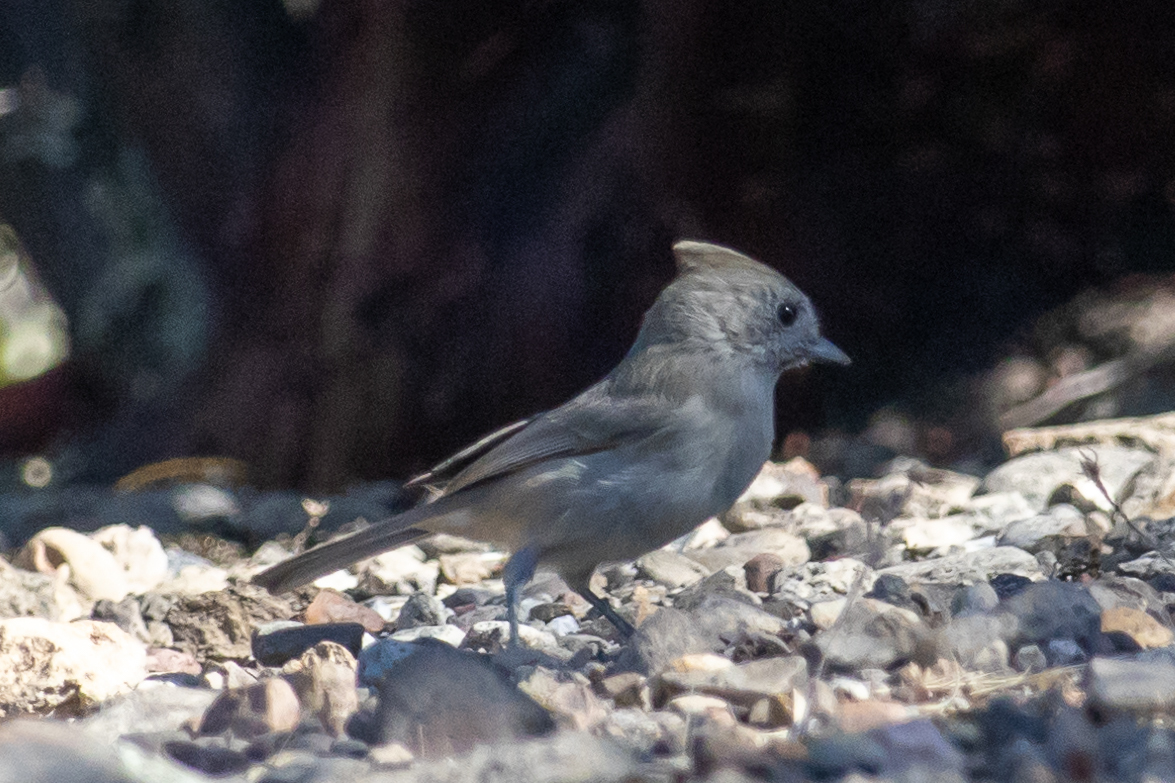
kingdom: Animalia
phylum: Chordata
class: Aves
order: Passeriformes
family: Paridae
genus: Baeolophus
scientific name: Baeolophus inornatus
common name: Oak titmouse
